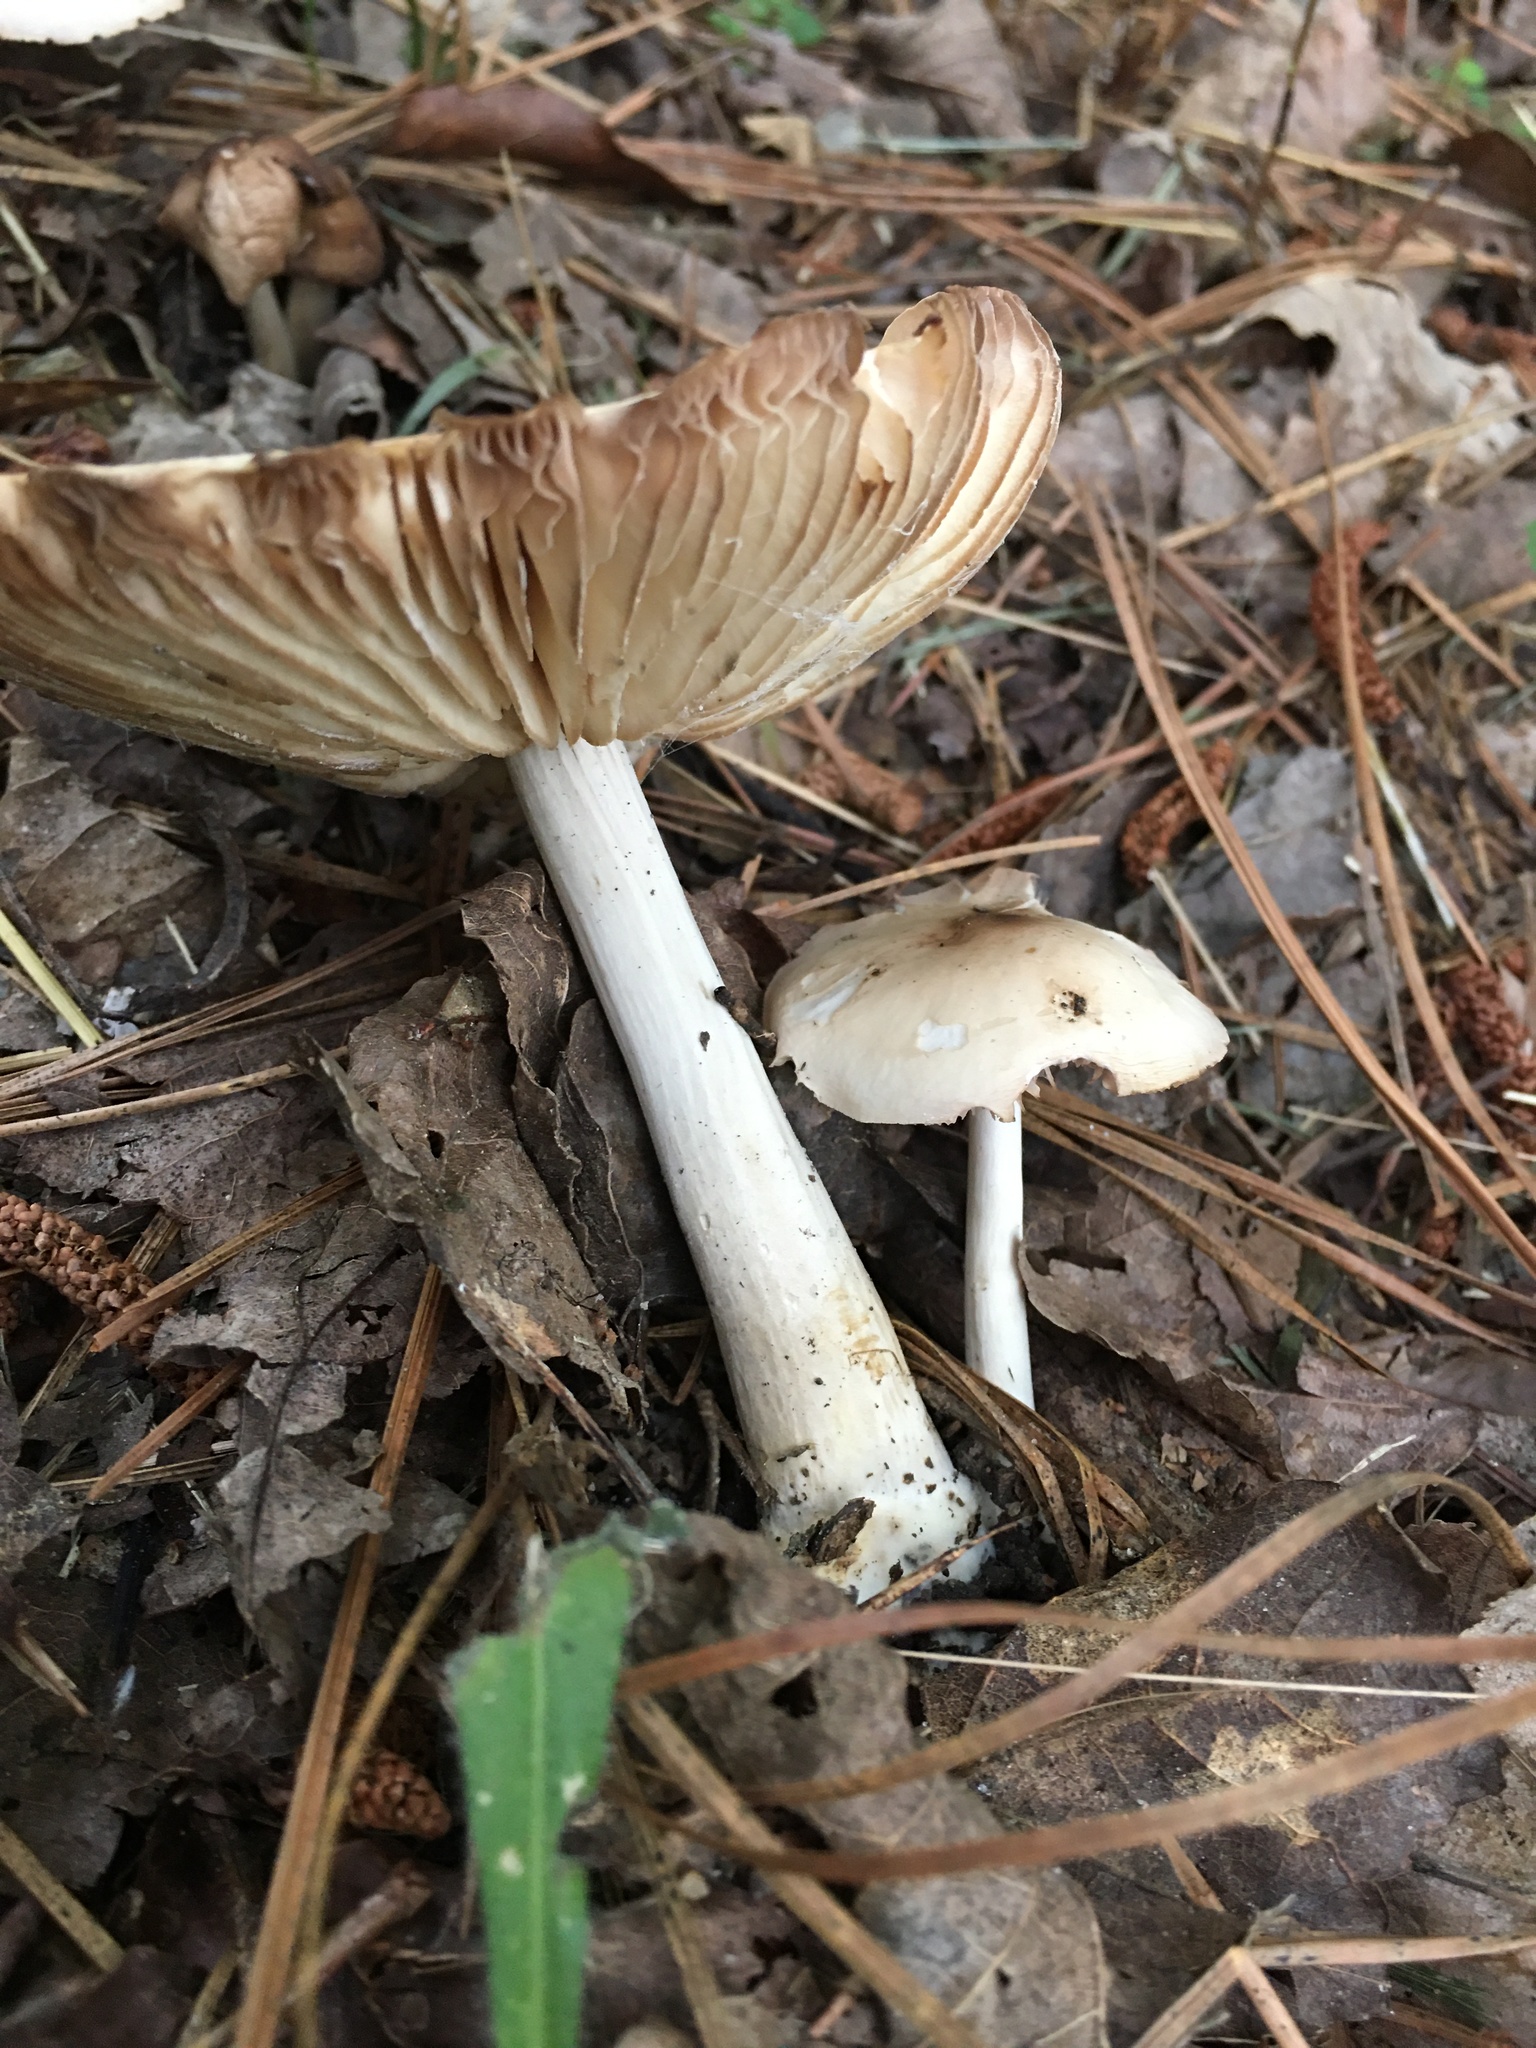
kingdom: Fungi
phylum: Basidiomycota
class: Agaricomycetes
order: Agaricales
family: Pluteaceae
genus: Pluteus
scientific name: Pluteus cervinus
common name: Deer shield
